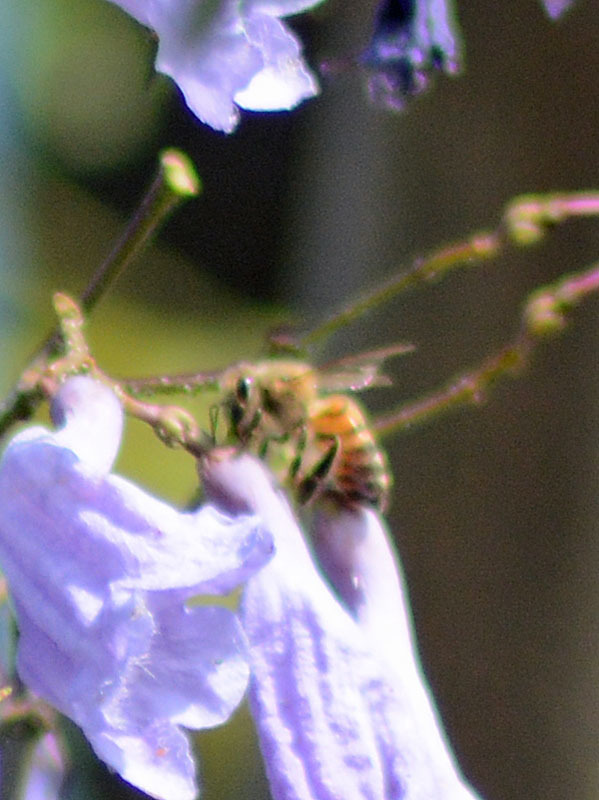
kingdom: Animalia
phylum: Arthropoda
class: Insecta
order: Hymenoptera
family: Apidae
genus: Apis
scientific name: Apis mellifera
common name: Honey bee
